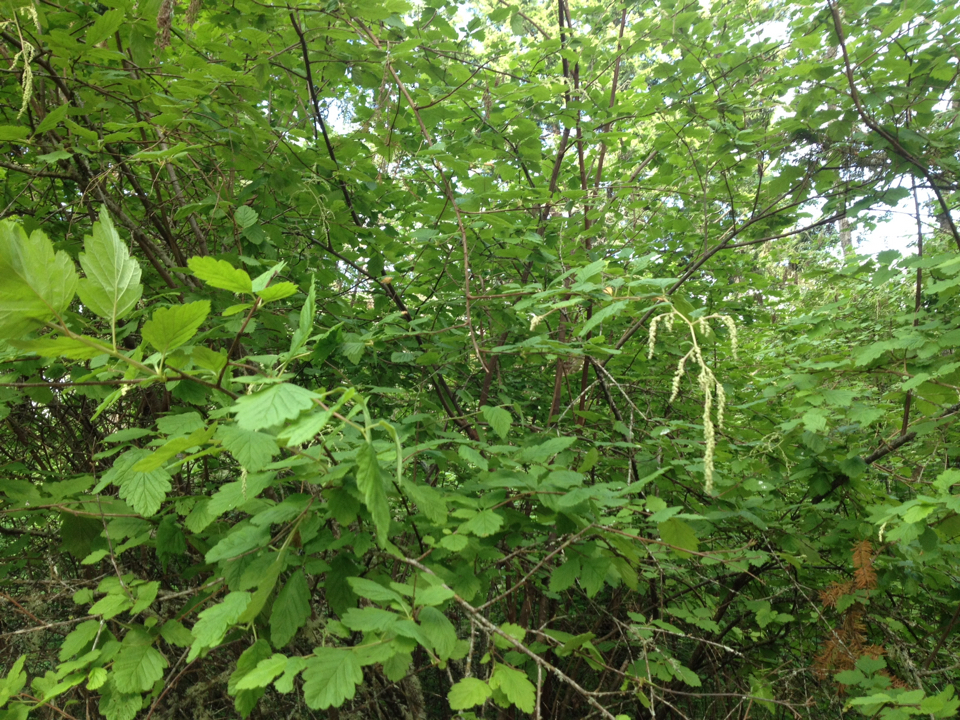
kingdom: Plantae
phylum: Tracheophyta
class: Magnoliopsida
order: Rosales
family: Rosaceae
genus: Holodiscus
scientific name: Holodiscus discolor
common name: Oceanspray
